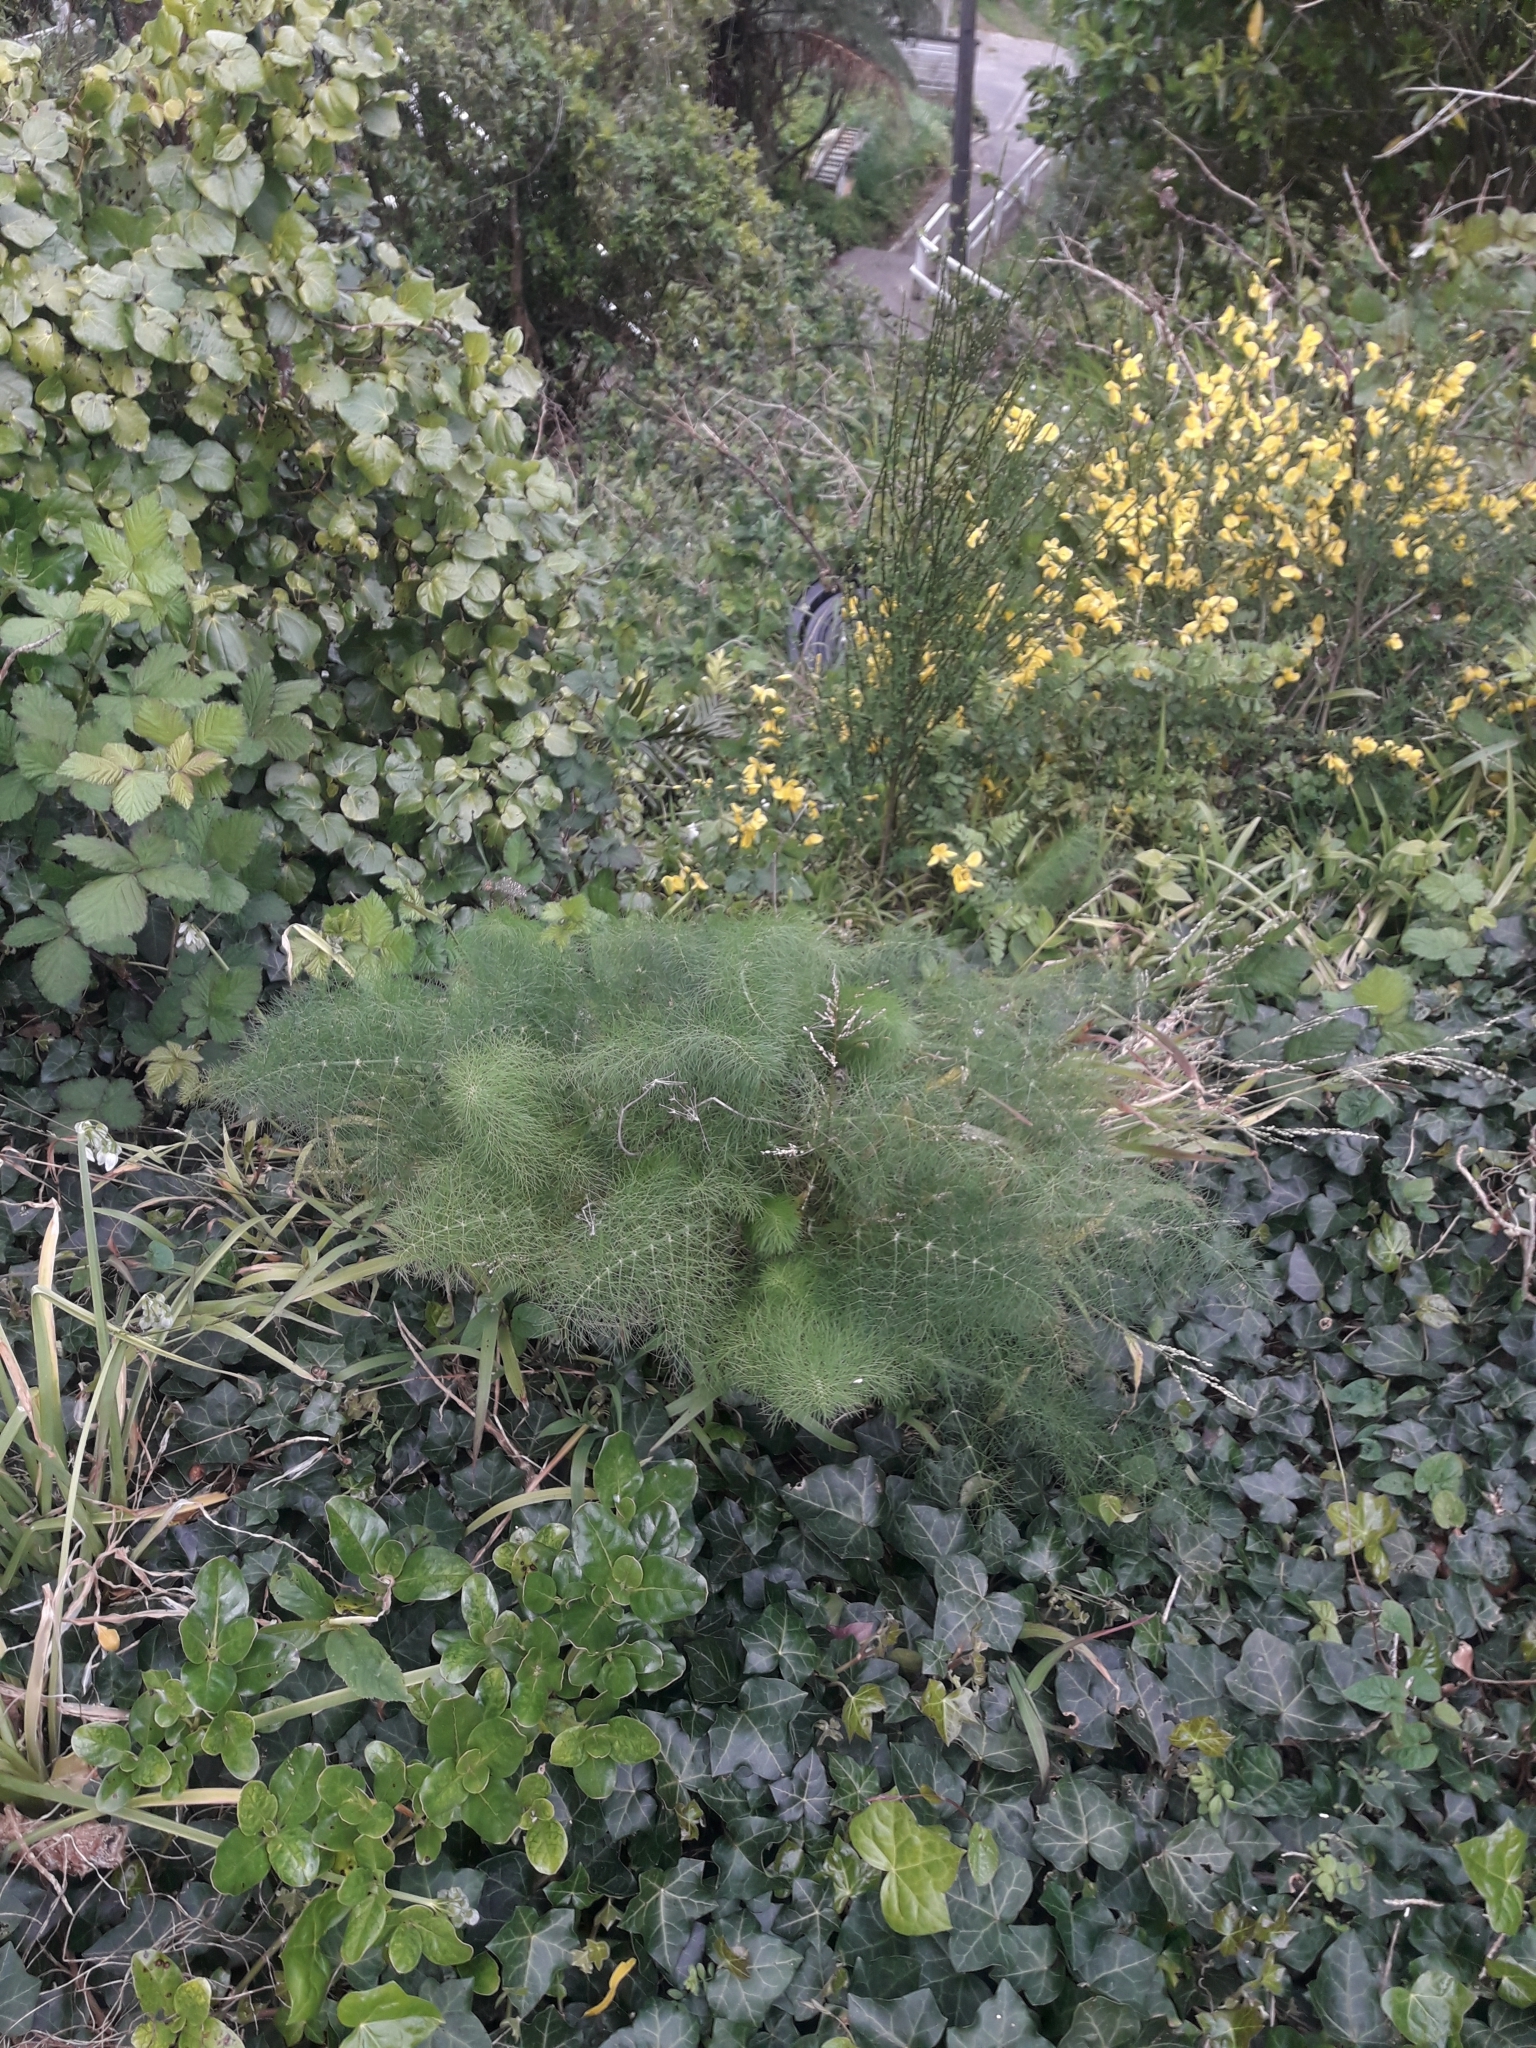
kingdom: Plantae
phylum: Tracheophyta
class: Magnoliopsida
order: Apiales
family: Apiaceae
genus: Foeniculum
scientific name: Foeniculum vulgare
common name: Fennel
